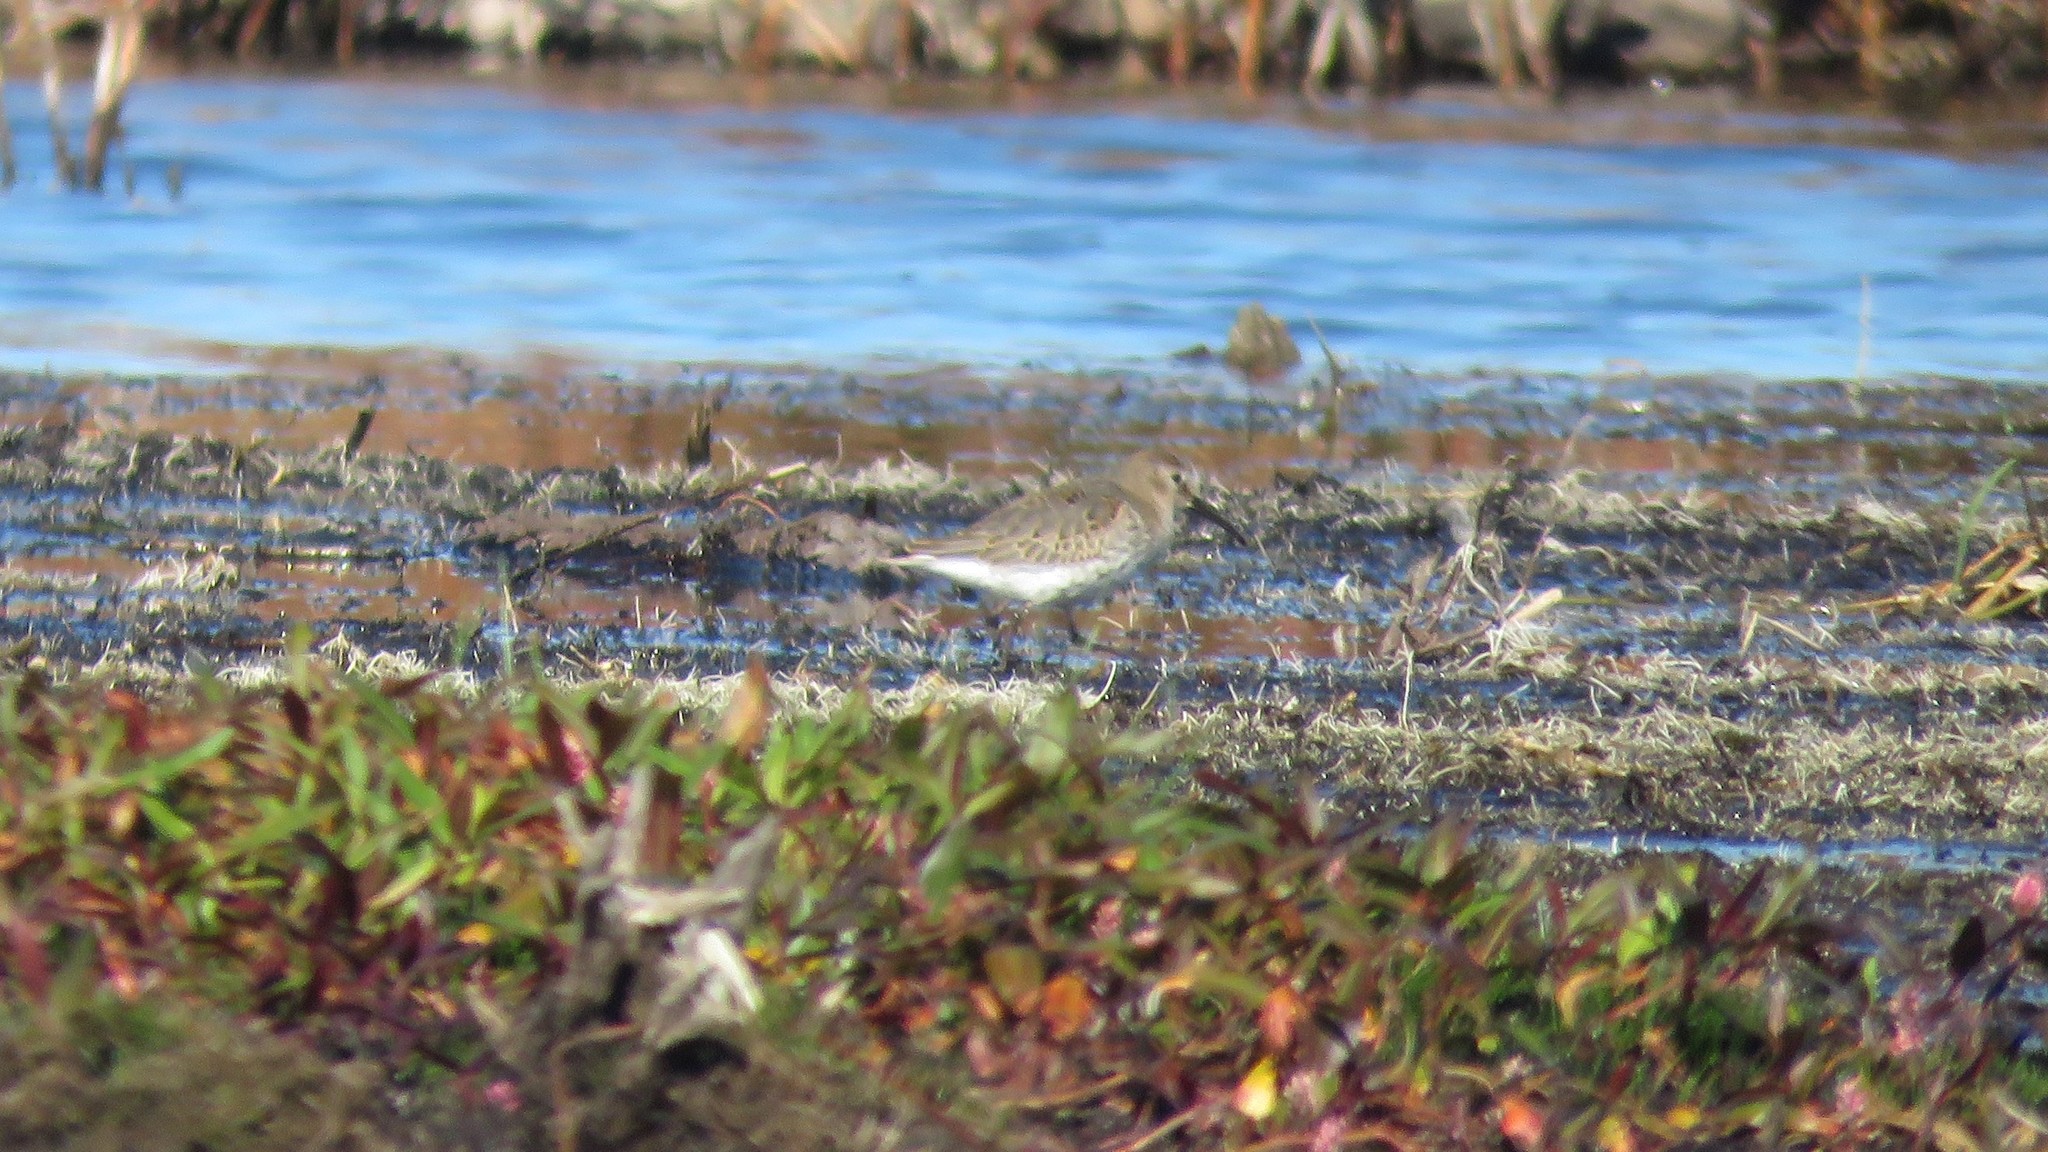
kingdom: Animalia
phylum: Chordata
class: Aves
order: Charadriiformes
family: Scolopacidae
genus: Calidris
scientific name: Calidris alpina
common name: Dunlin
